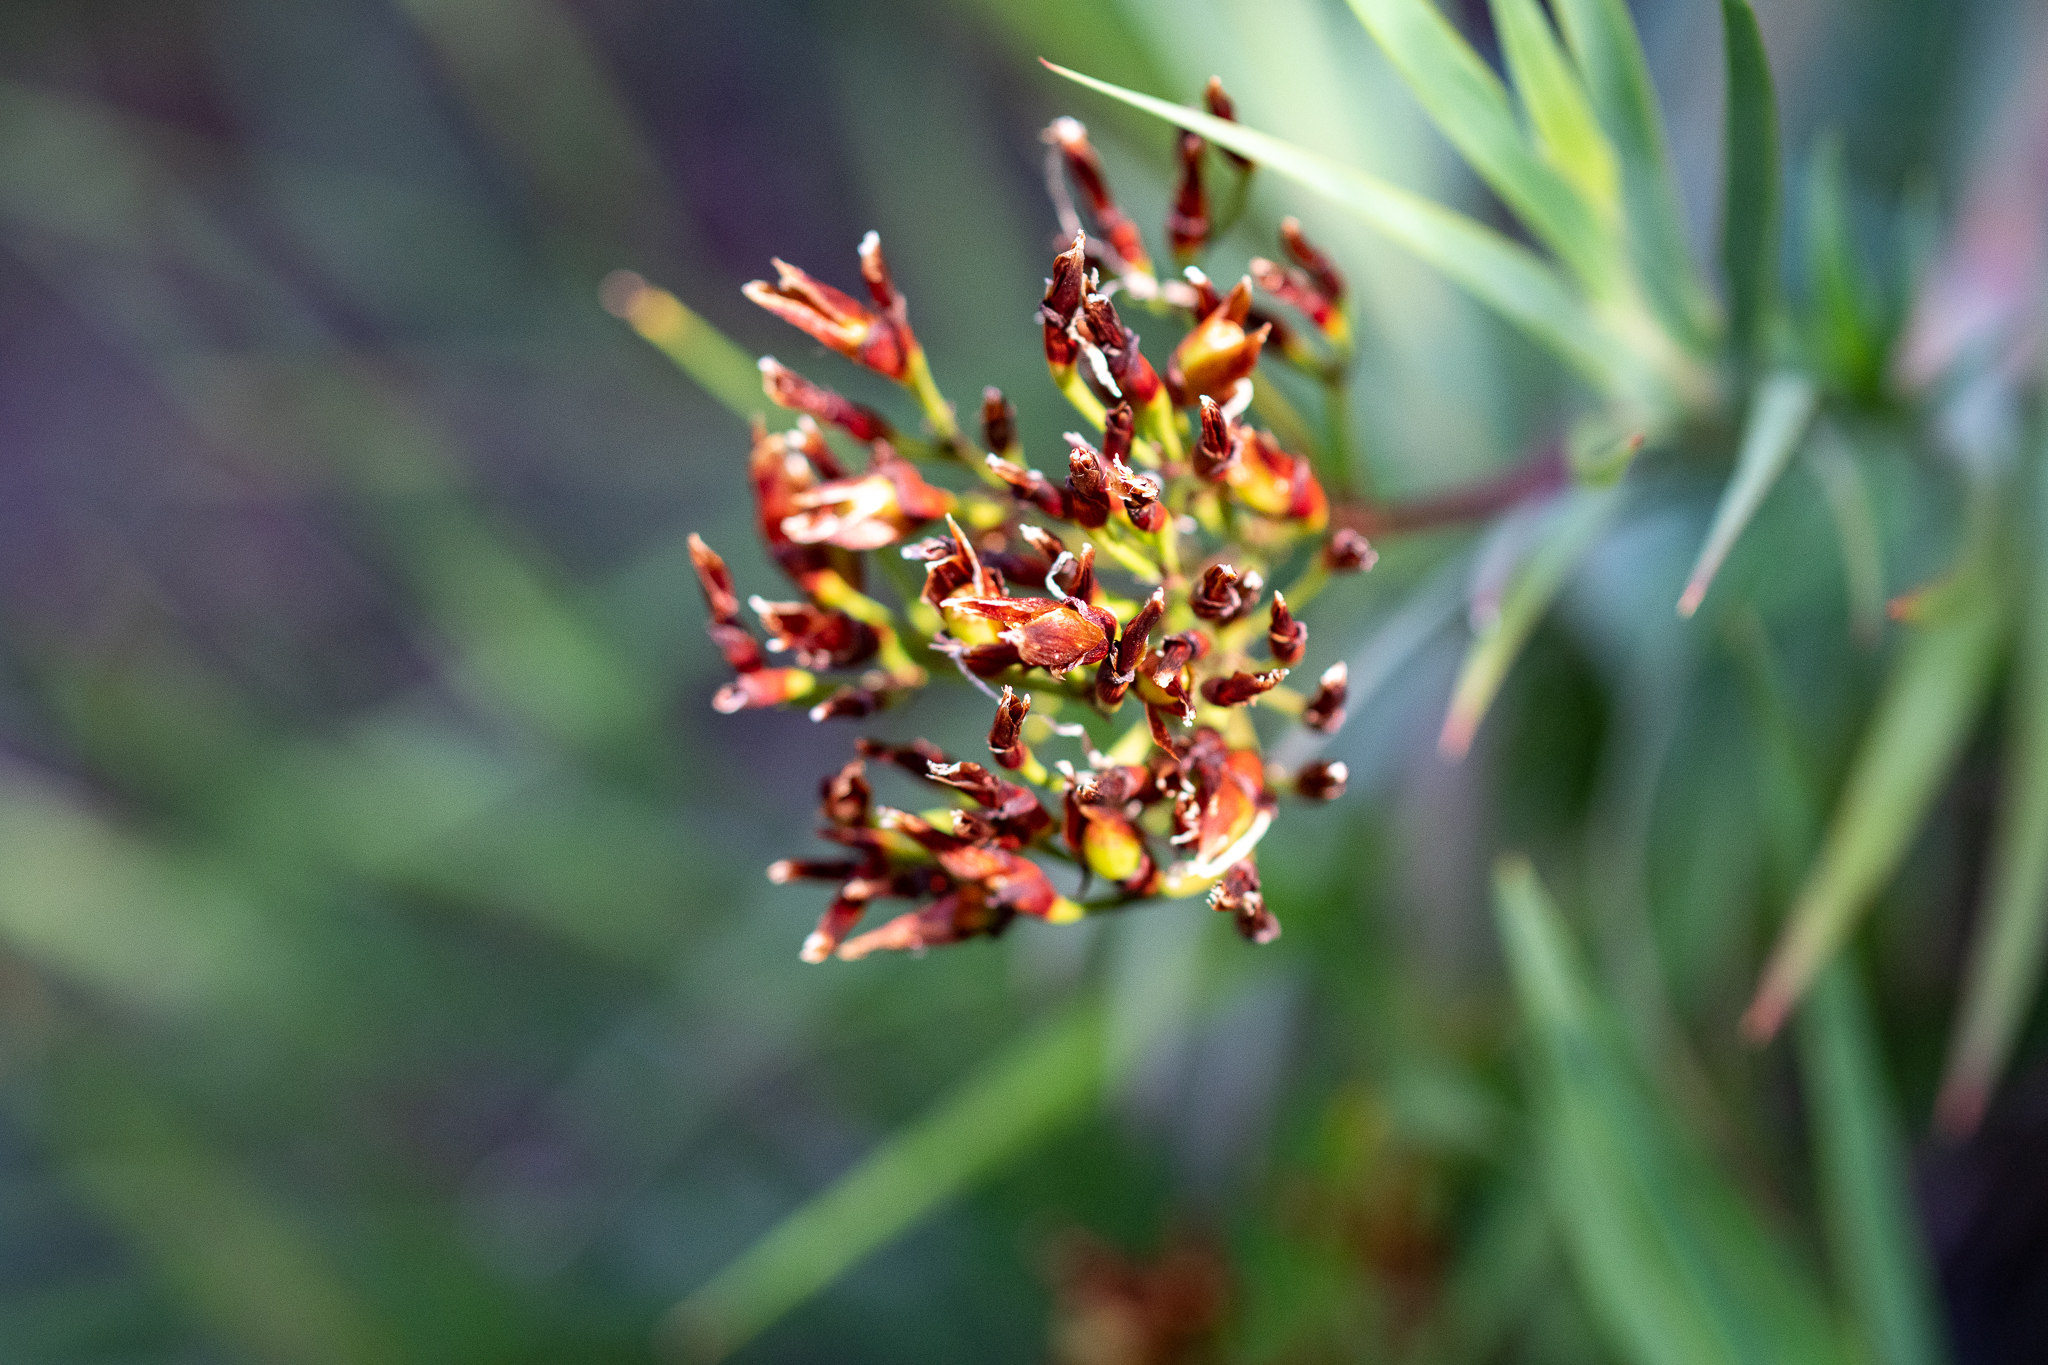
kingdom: Plantae
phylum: Tracheophyta
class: Liliopsida
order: Asparagales
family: Iridaceae
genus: Nivenia
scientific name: Nivenia stokoei
